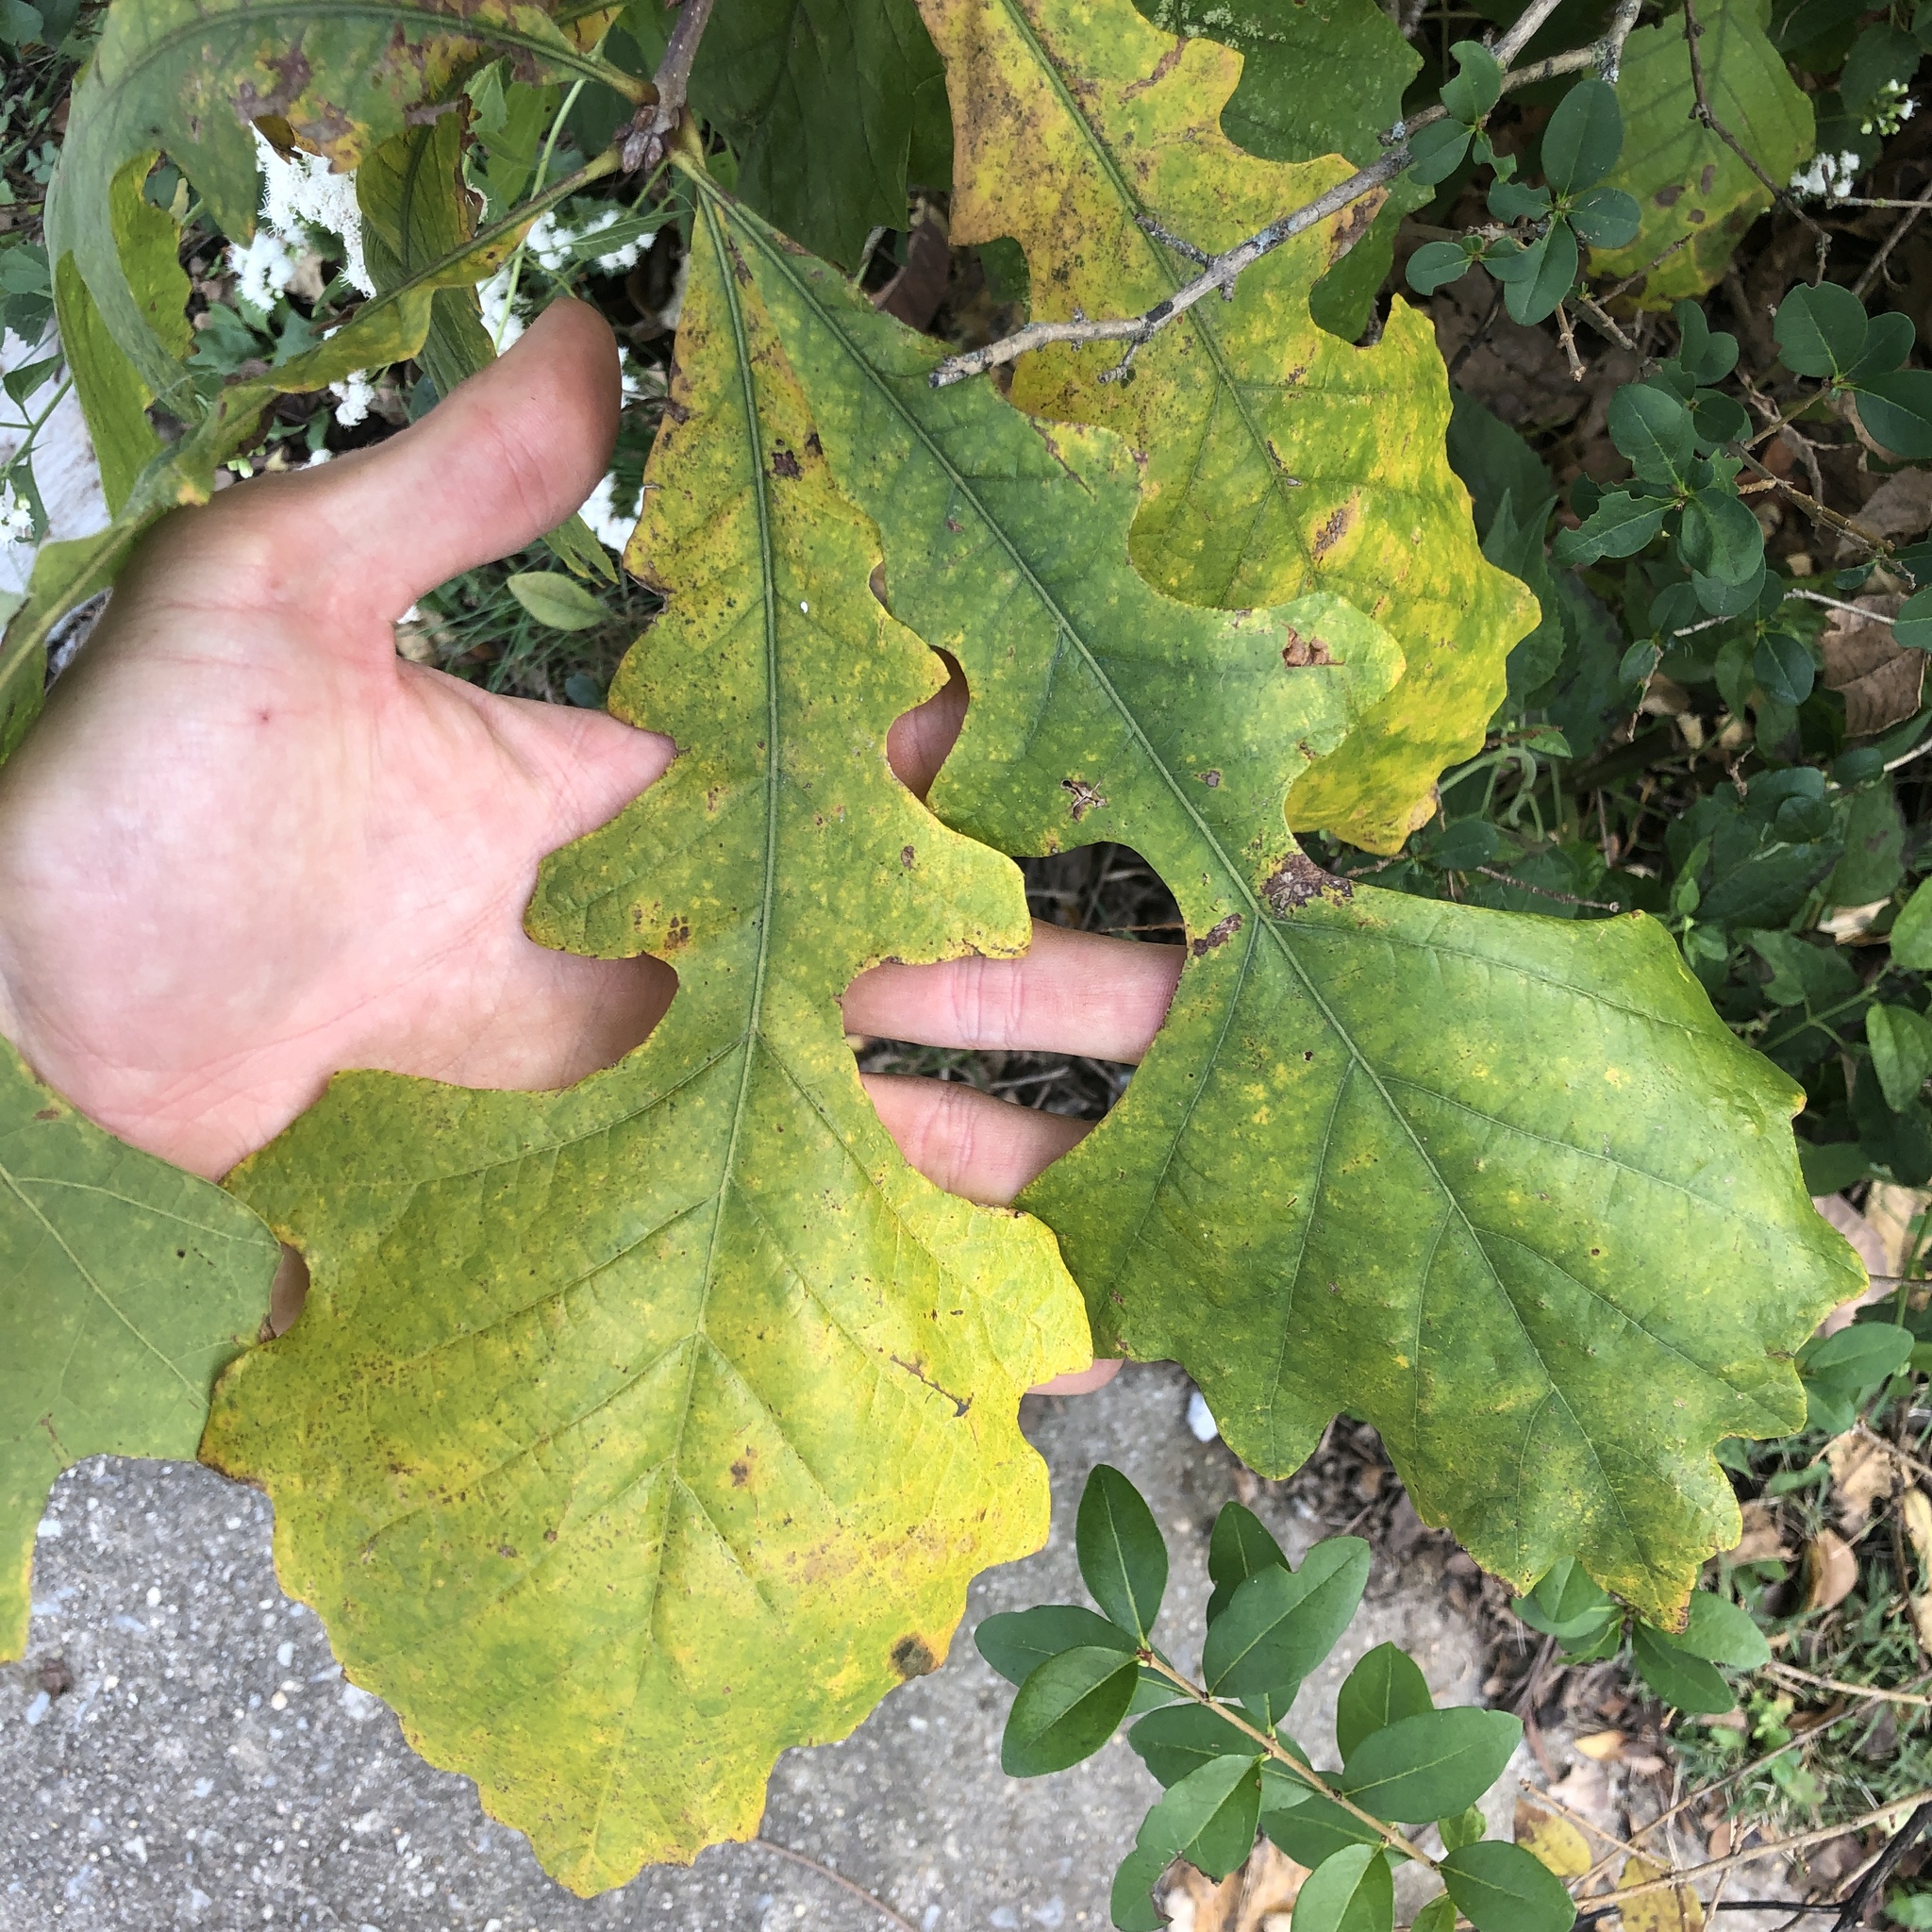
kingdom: Plantae
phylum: Tracheophyta
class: Magnoliopsida
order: Fagales
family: Fagaceae
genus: Quercus
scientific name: Quercus macrocarpa
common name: Bur oak
